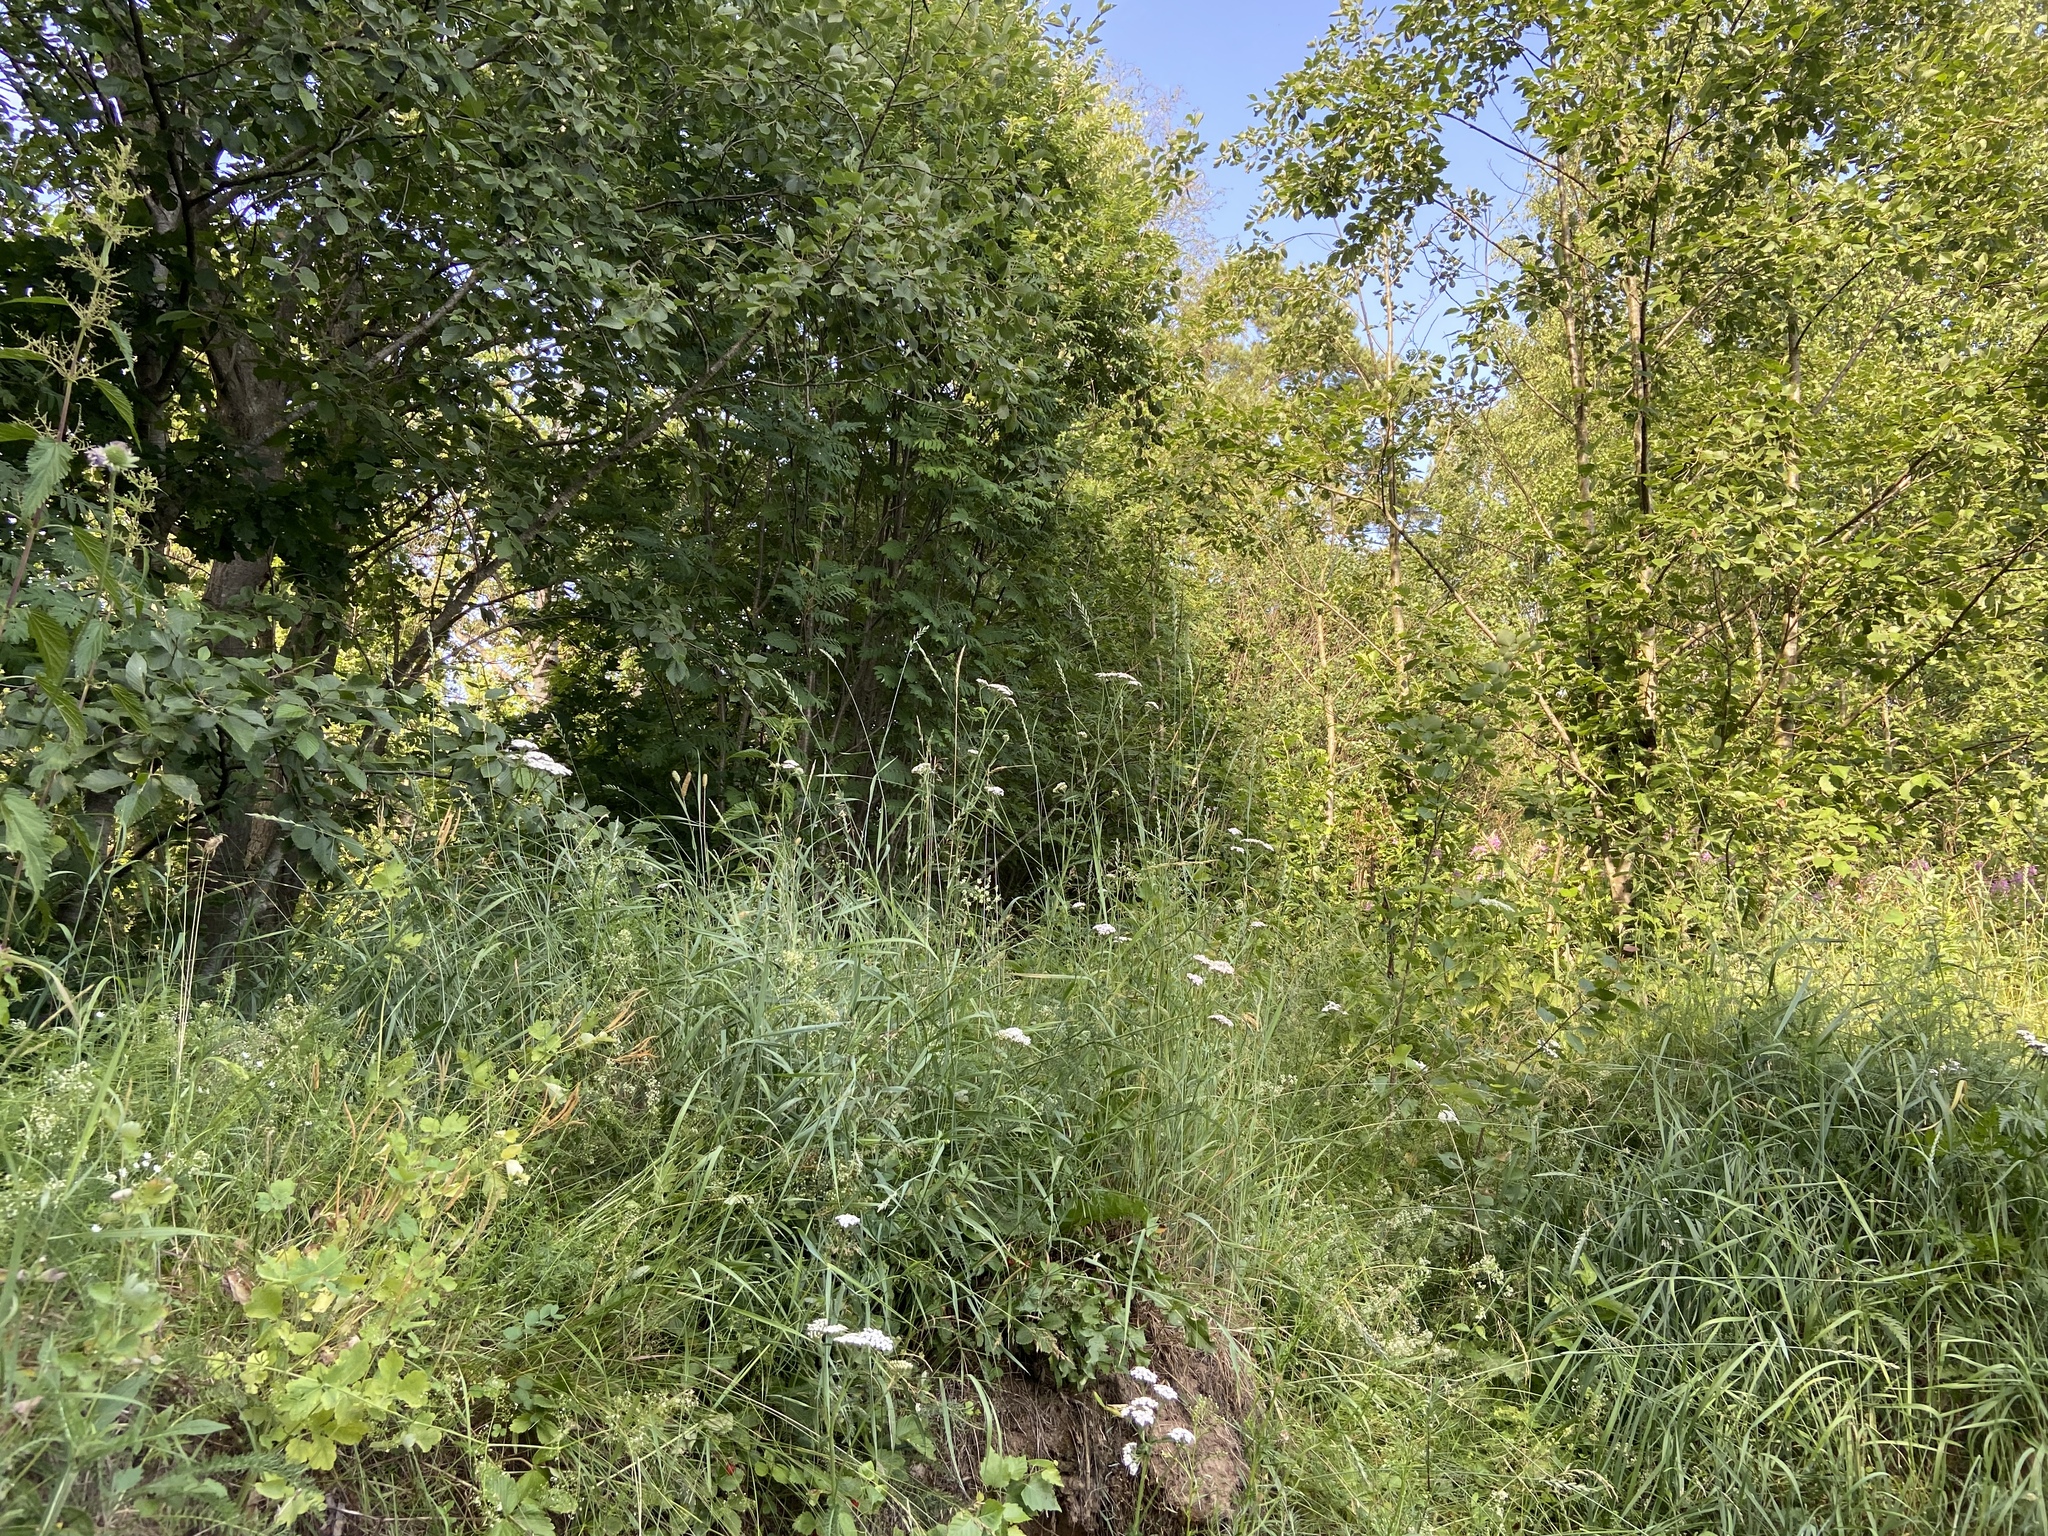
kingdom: Plantae
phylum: Tracheophyta
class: Liliopsida
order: Poales
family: Poaceae
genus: Elymus
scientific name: Elymus repens
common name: Quackgrass
